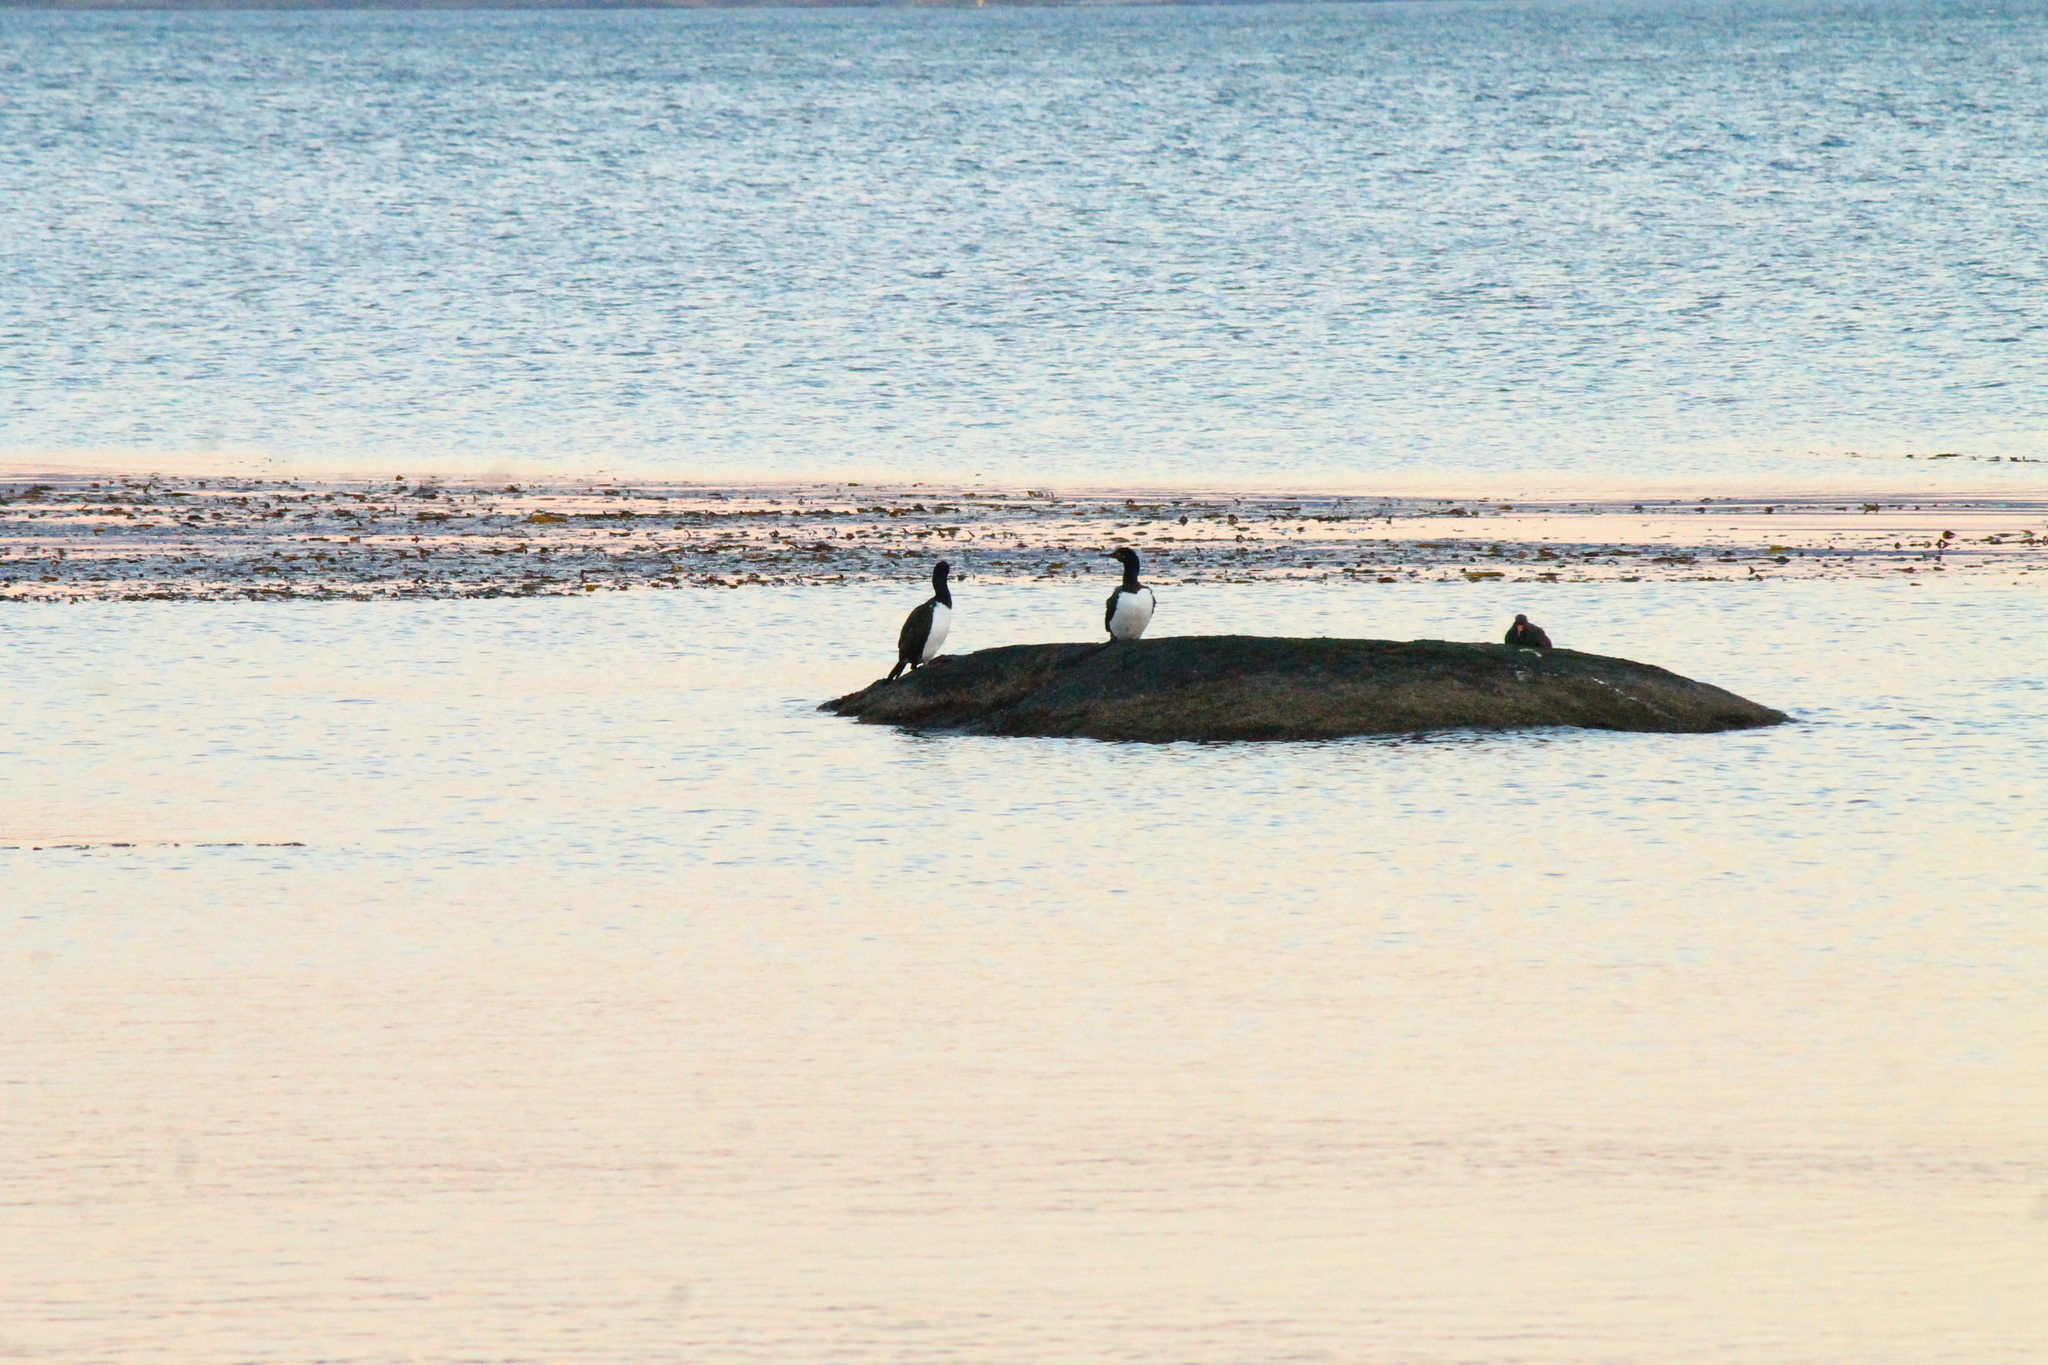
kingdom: Animalia
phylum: Chordata
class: Aves
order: Suliformes
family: Phalacrocoracidae
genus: Phalacrocorax
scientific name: Phalacrocorax magellanicus
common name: Rock shag
